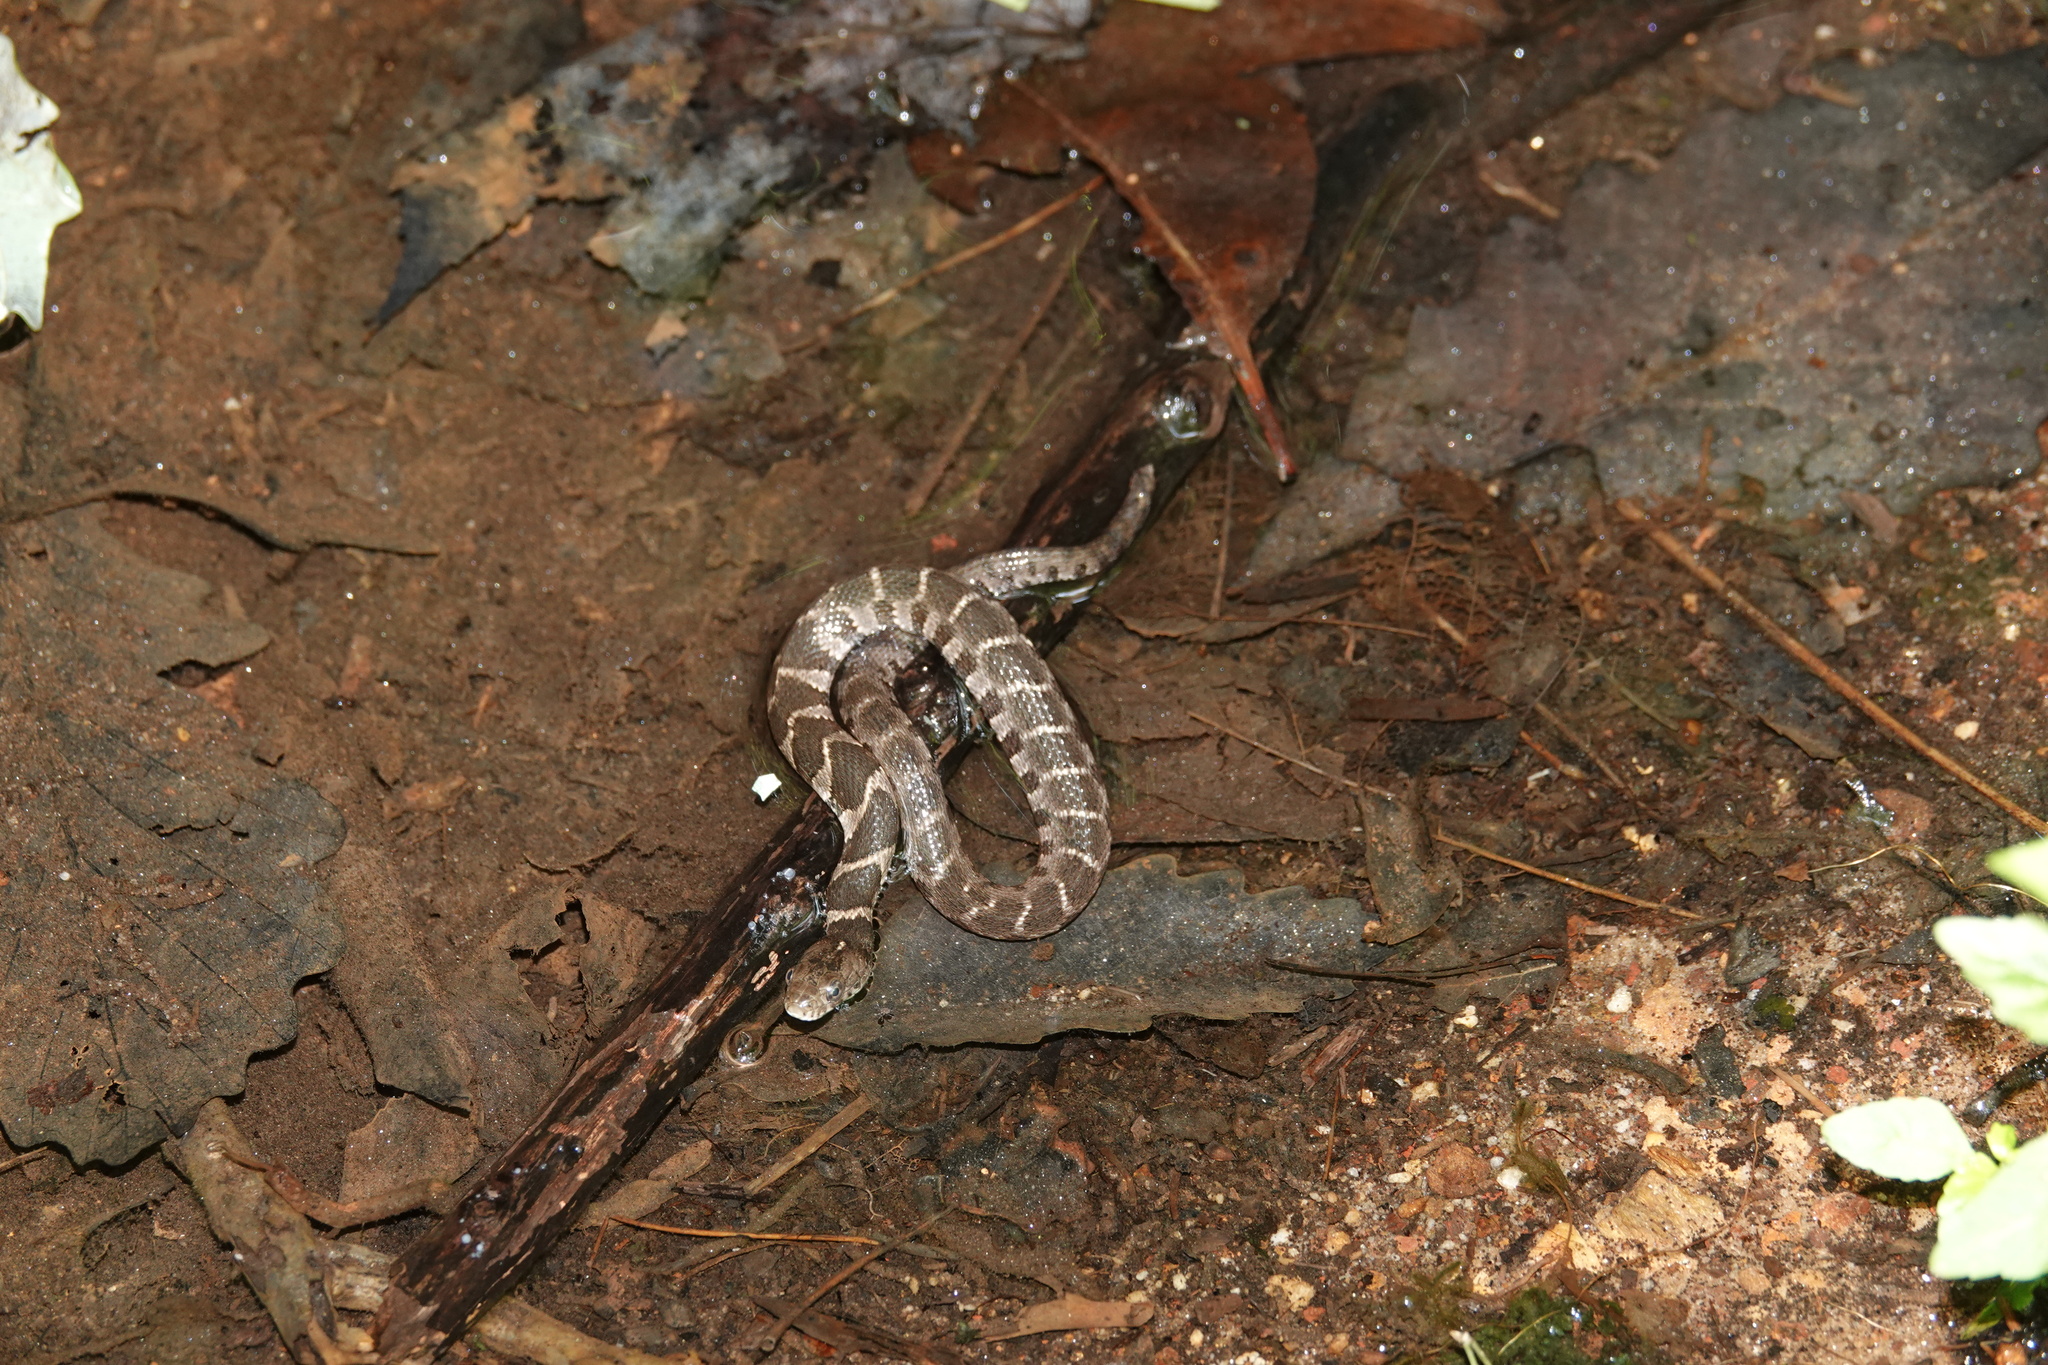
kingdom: Animalia
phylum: Chordata
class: Squamata
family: Colubridae
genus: Nerodia
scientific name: Nerodia sipedon
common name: Northern water snake
